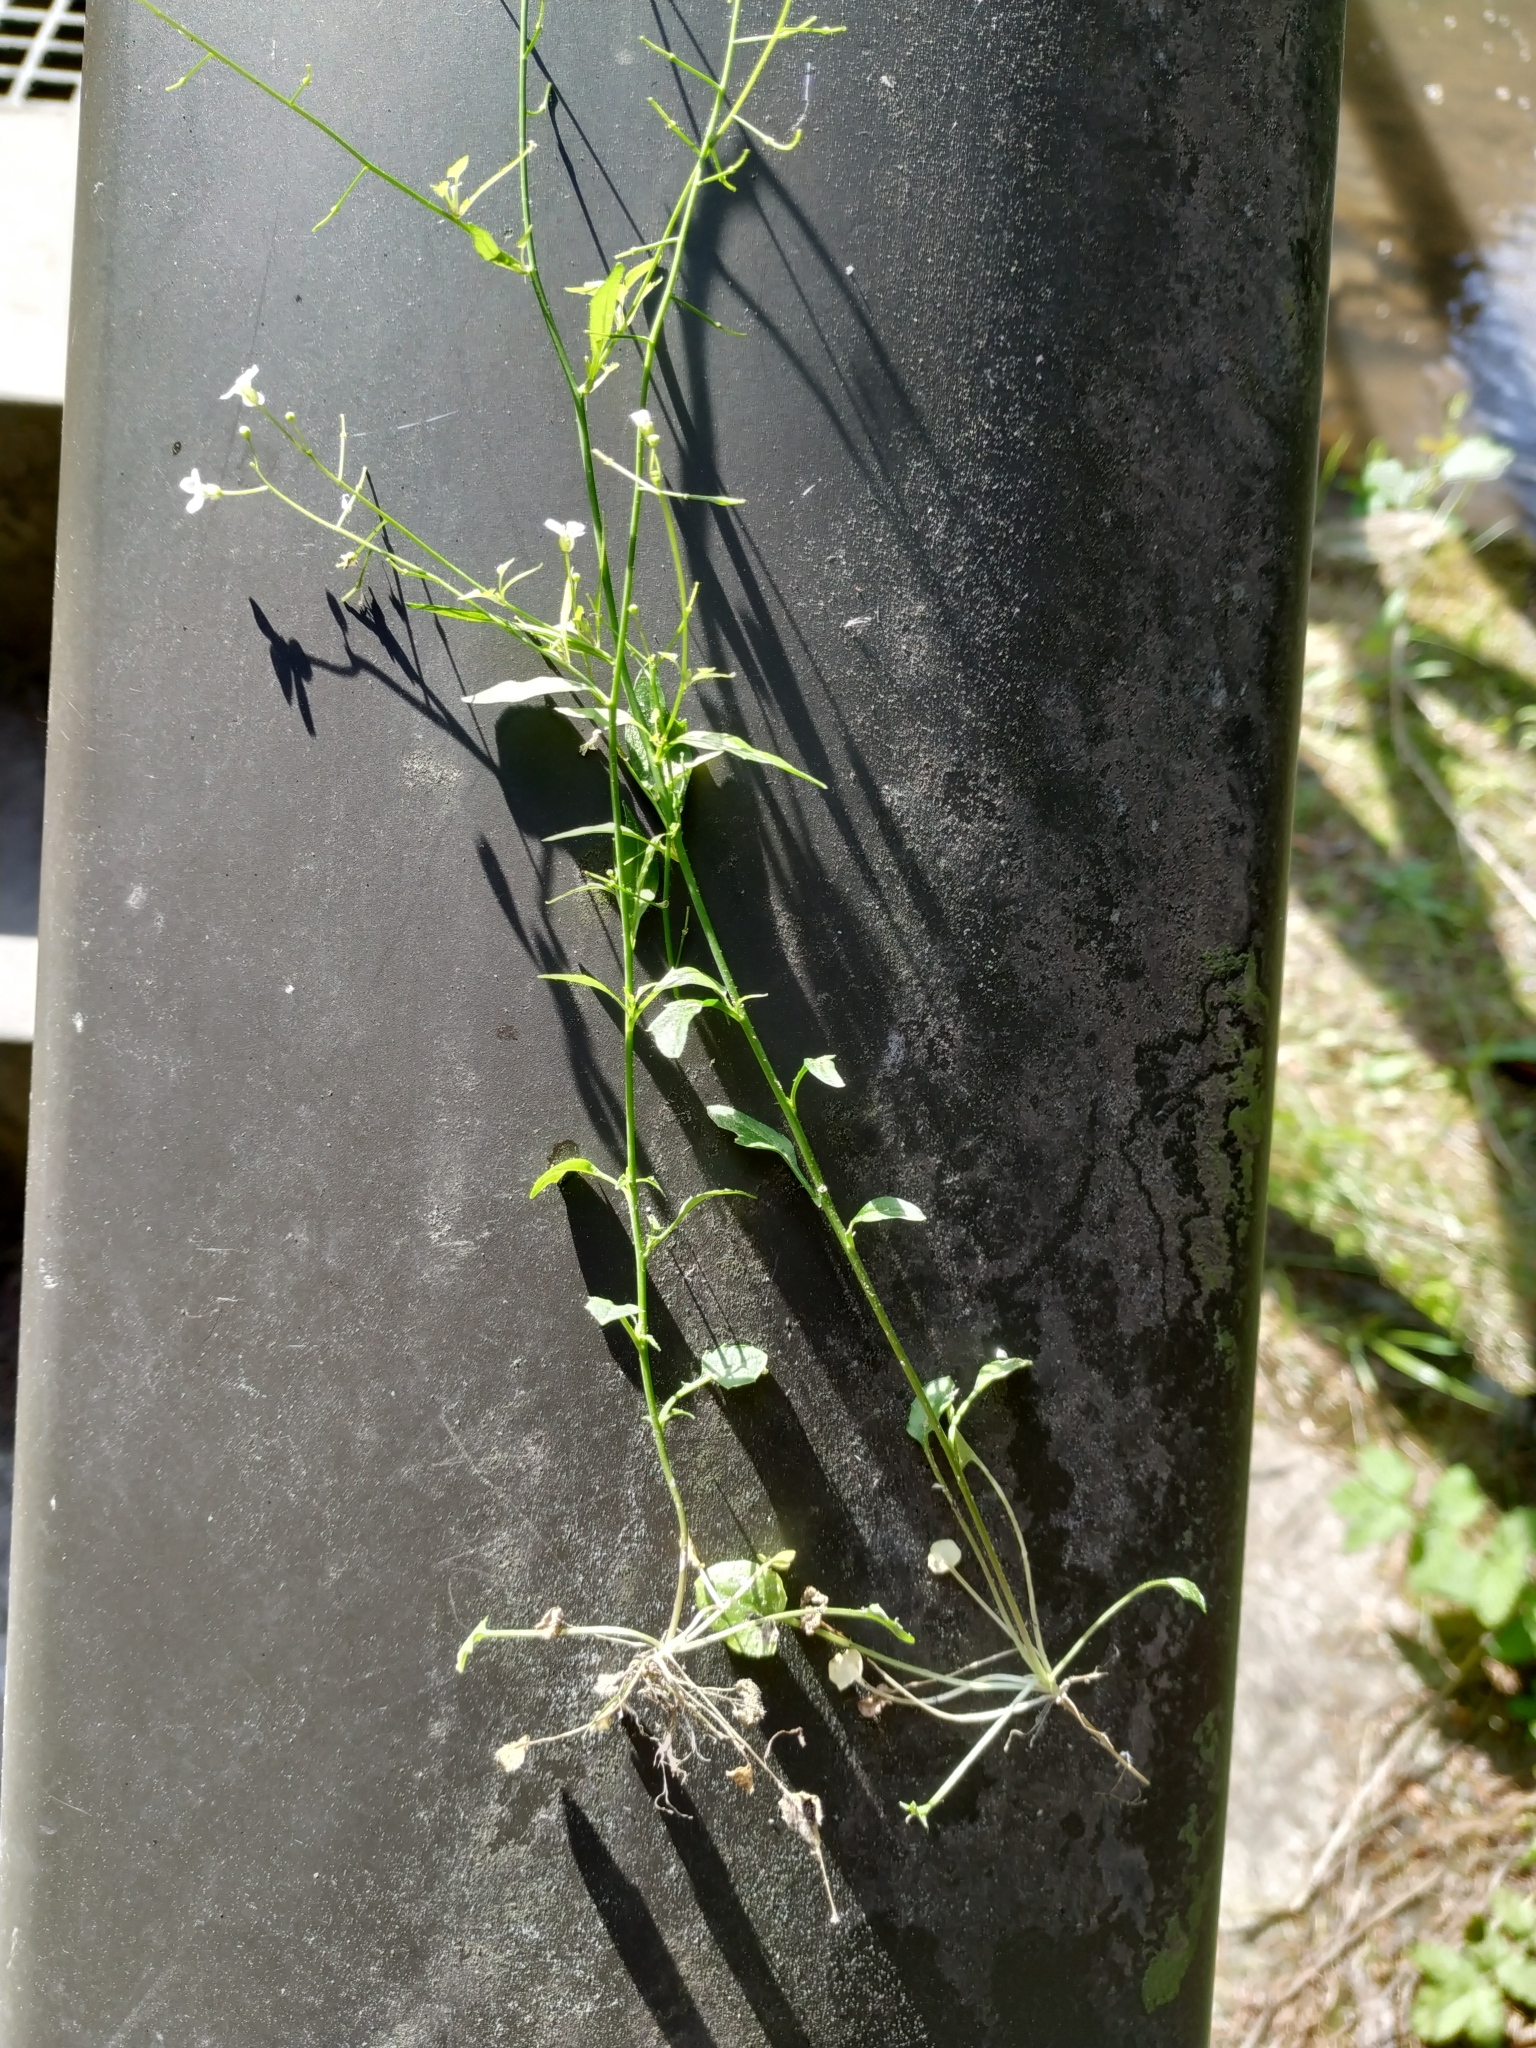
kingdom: Plantae
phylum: Tracheophyta
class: Magnoliopsida
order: Brassicales
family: Brassicaceae
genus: Arabidopsis
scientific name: Arabidopsis halleri
